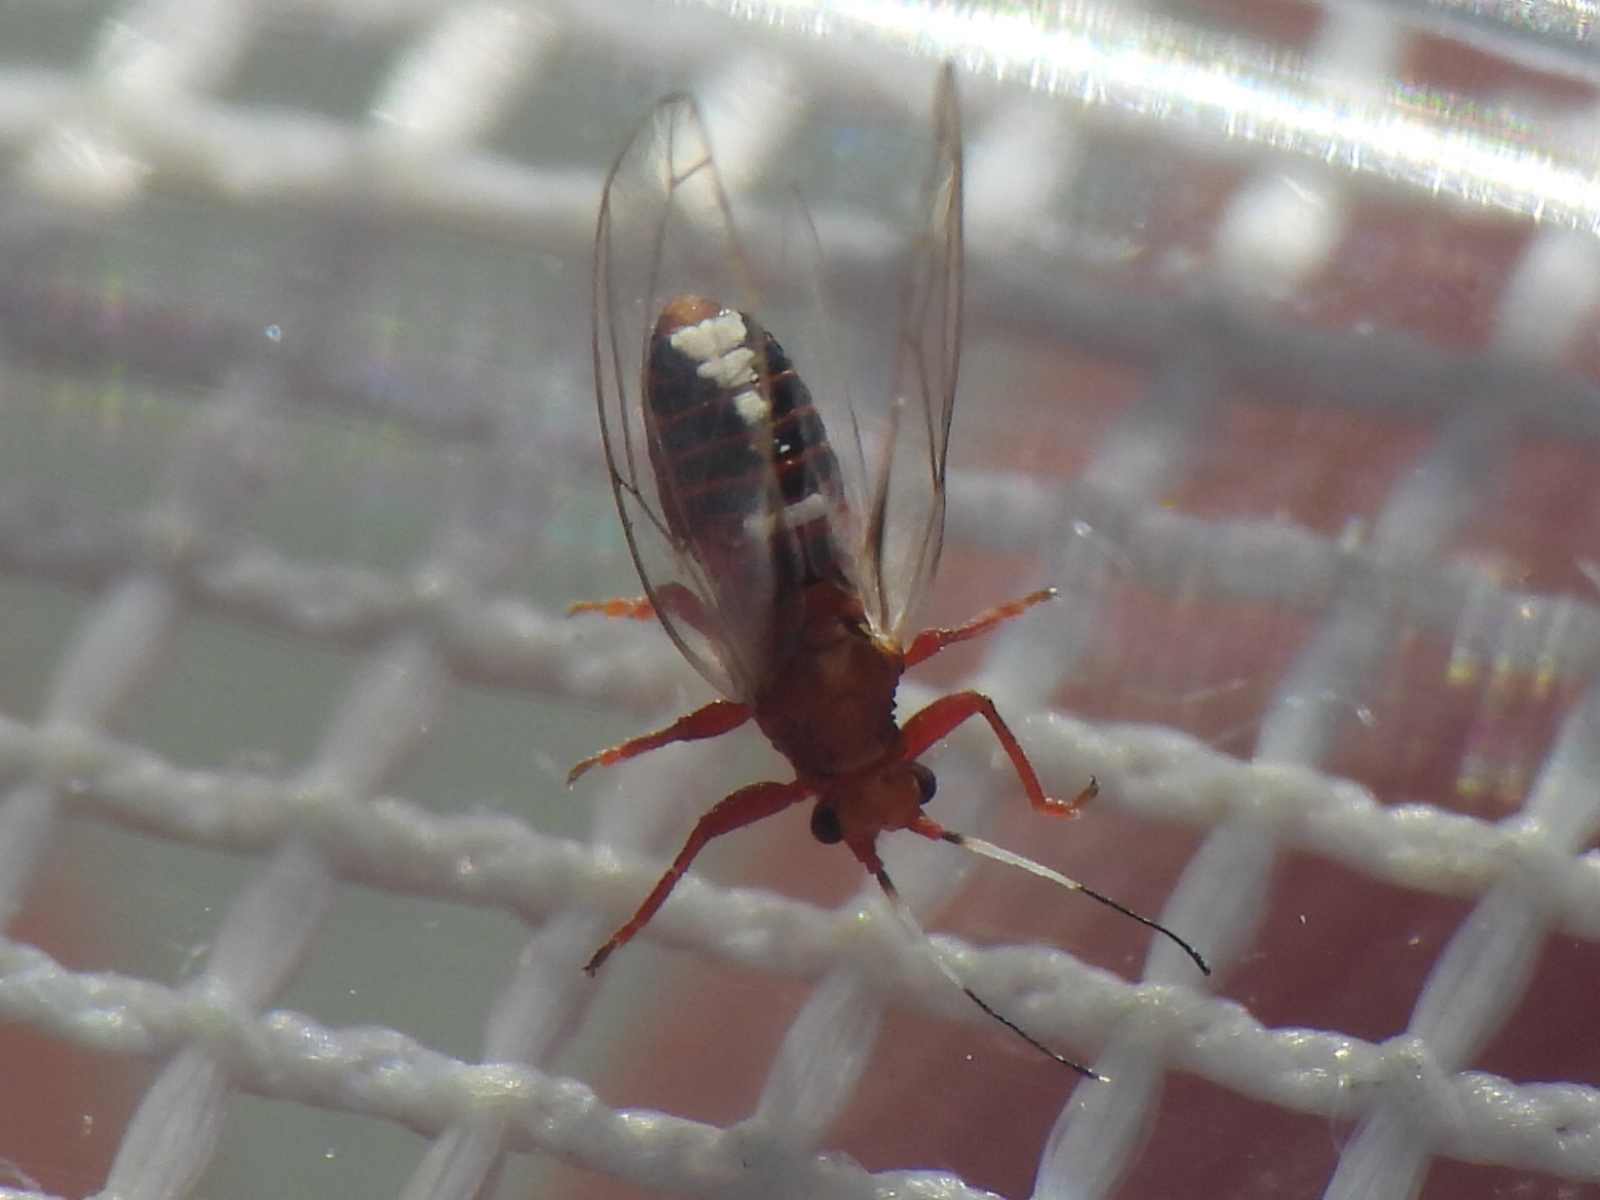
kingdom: Animalia
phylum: Arthropoda
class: Insecta
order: Hemiptera
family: Triozidae
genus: Bactericera
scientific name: Bactericera antennata
